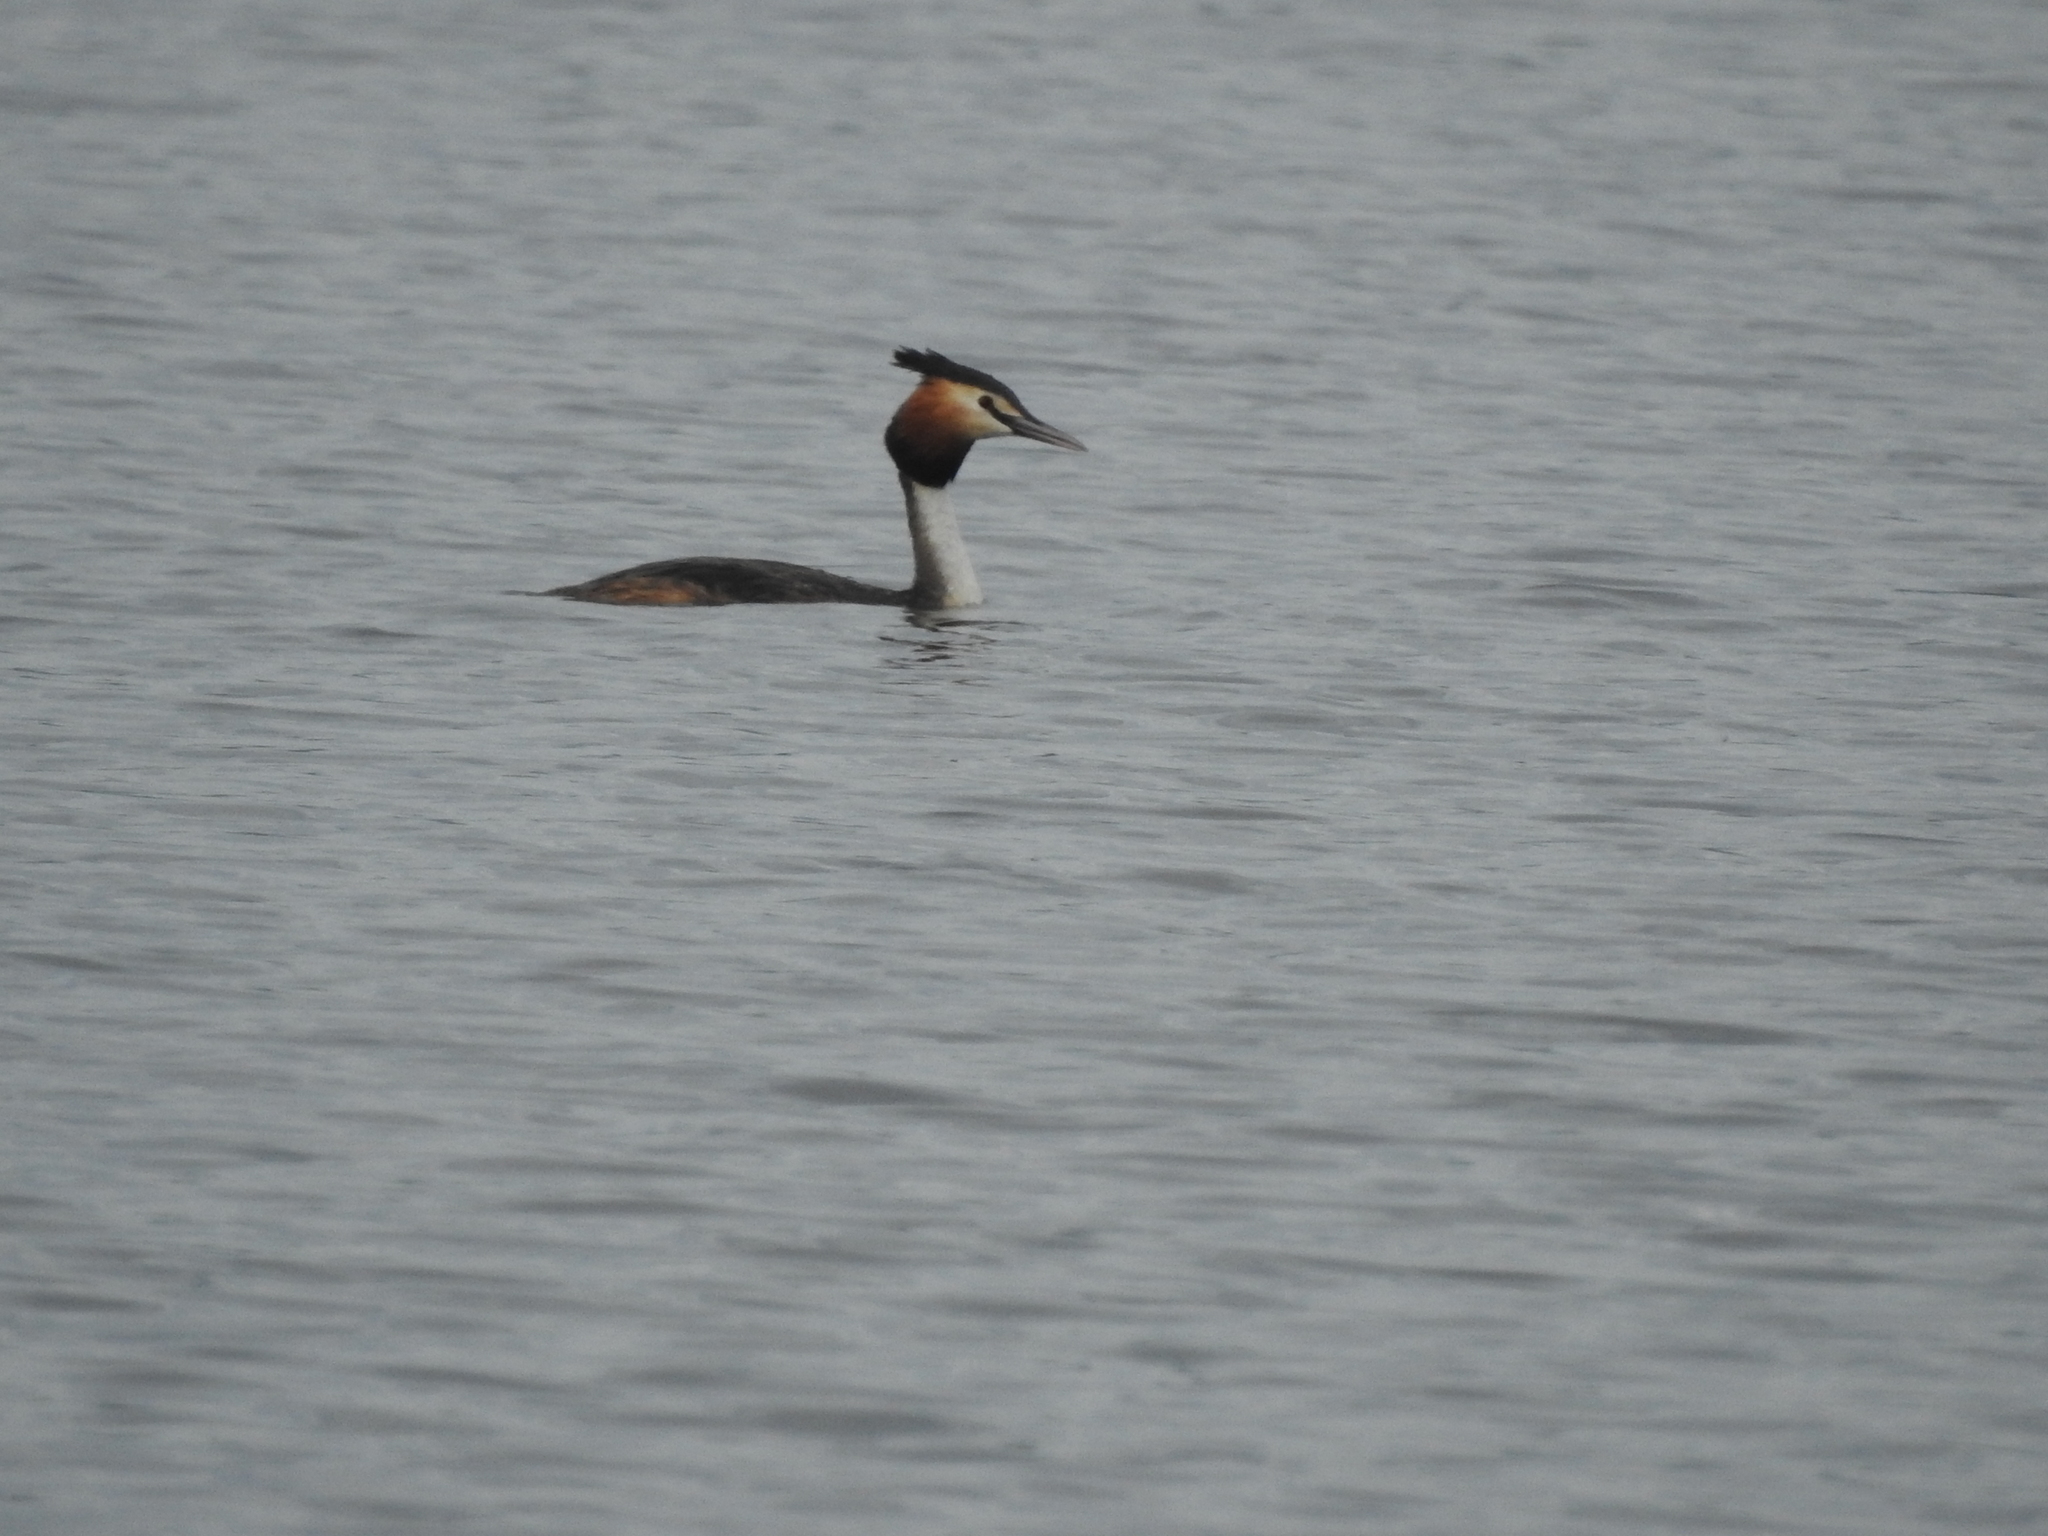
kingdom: Animalia
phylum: Chordata
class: Aves
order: Podicipediformes
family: Podicipedidae
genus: Podiceps
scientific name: Podiceps cristatus
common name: Great crested grebe
